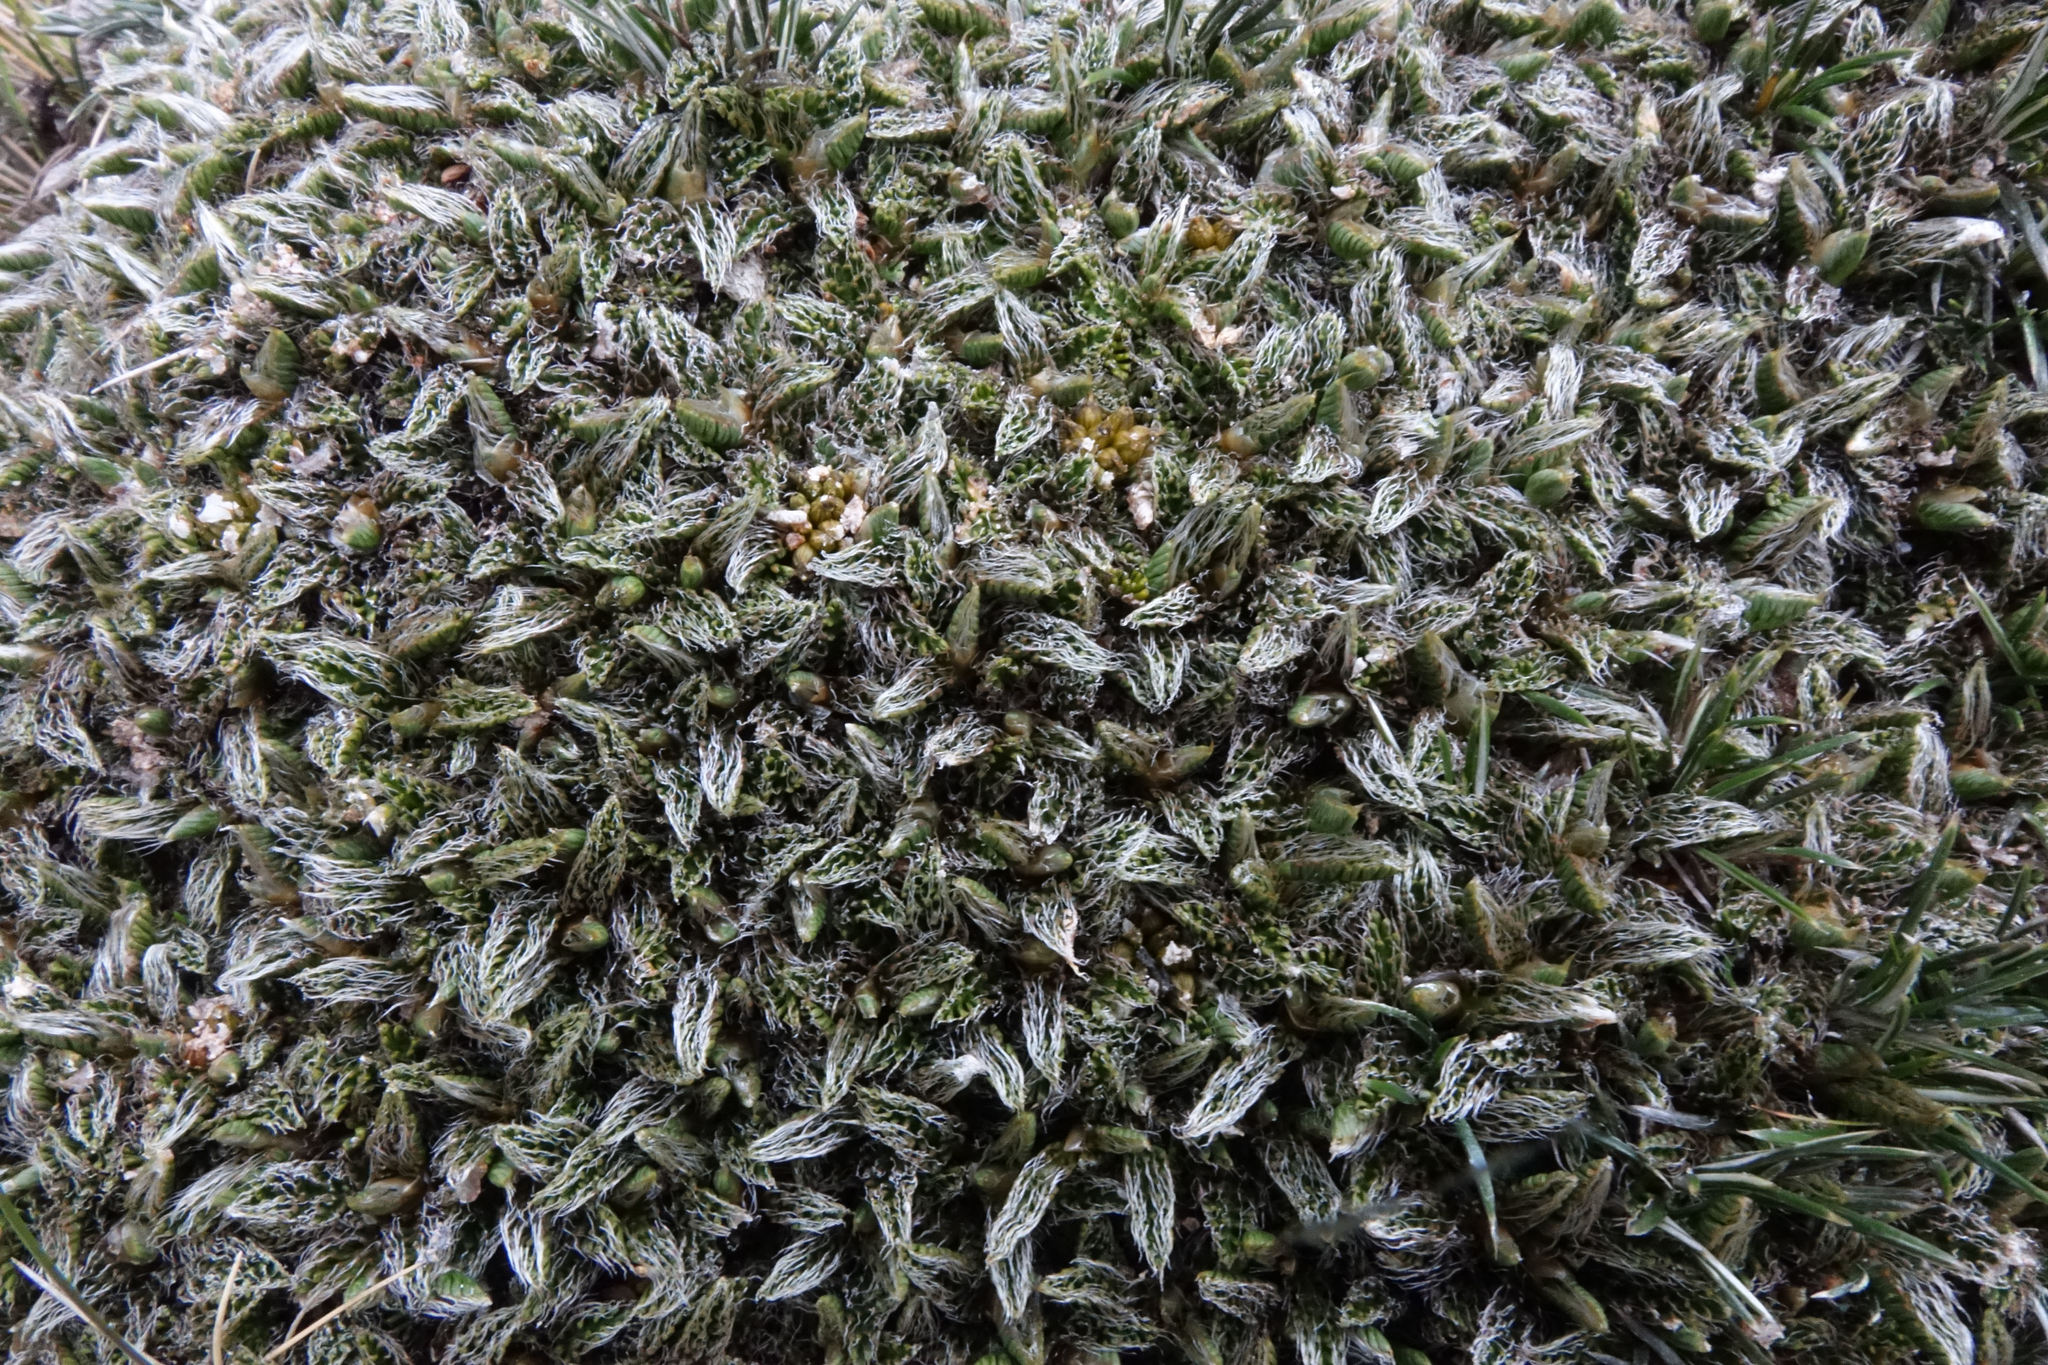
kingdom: Plantae
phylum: Tracheophyta
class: Magnoliopsida
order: Apiales
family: Apiaceae
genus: Anisotome
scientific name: Anisotome imbricata
